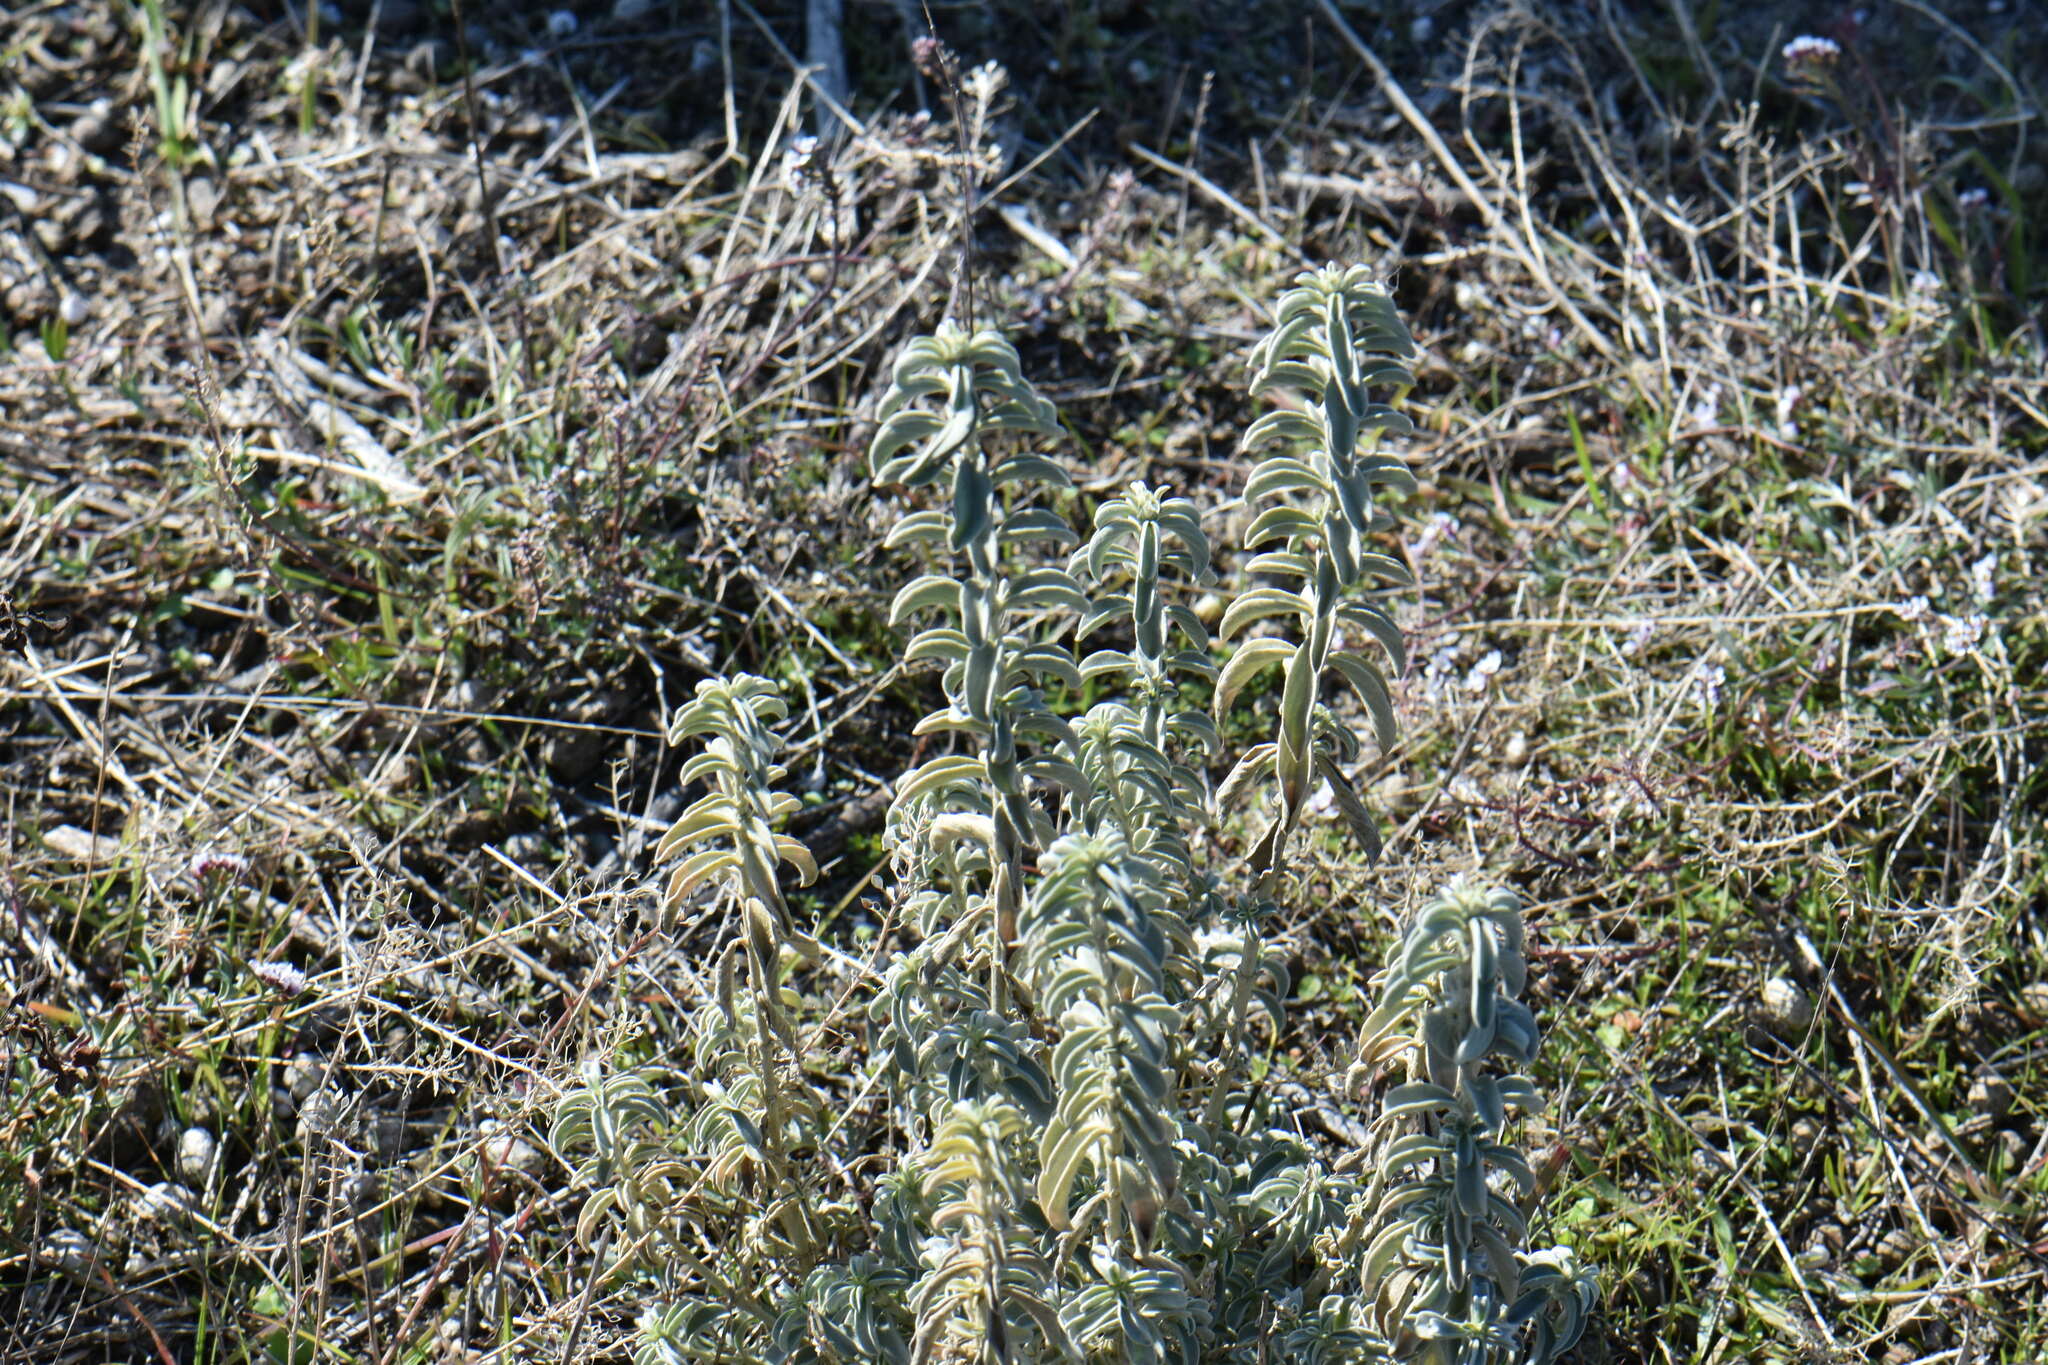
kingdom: Plantae
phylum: Tracheophyta
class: Magnoliopsida
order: Malpighiales
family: Euphorbiaceae
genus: Mercurialis
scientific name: Mercurialis tomentosa
